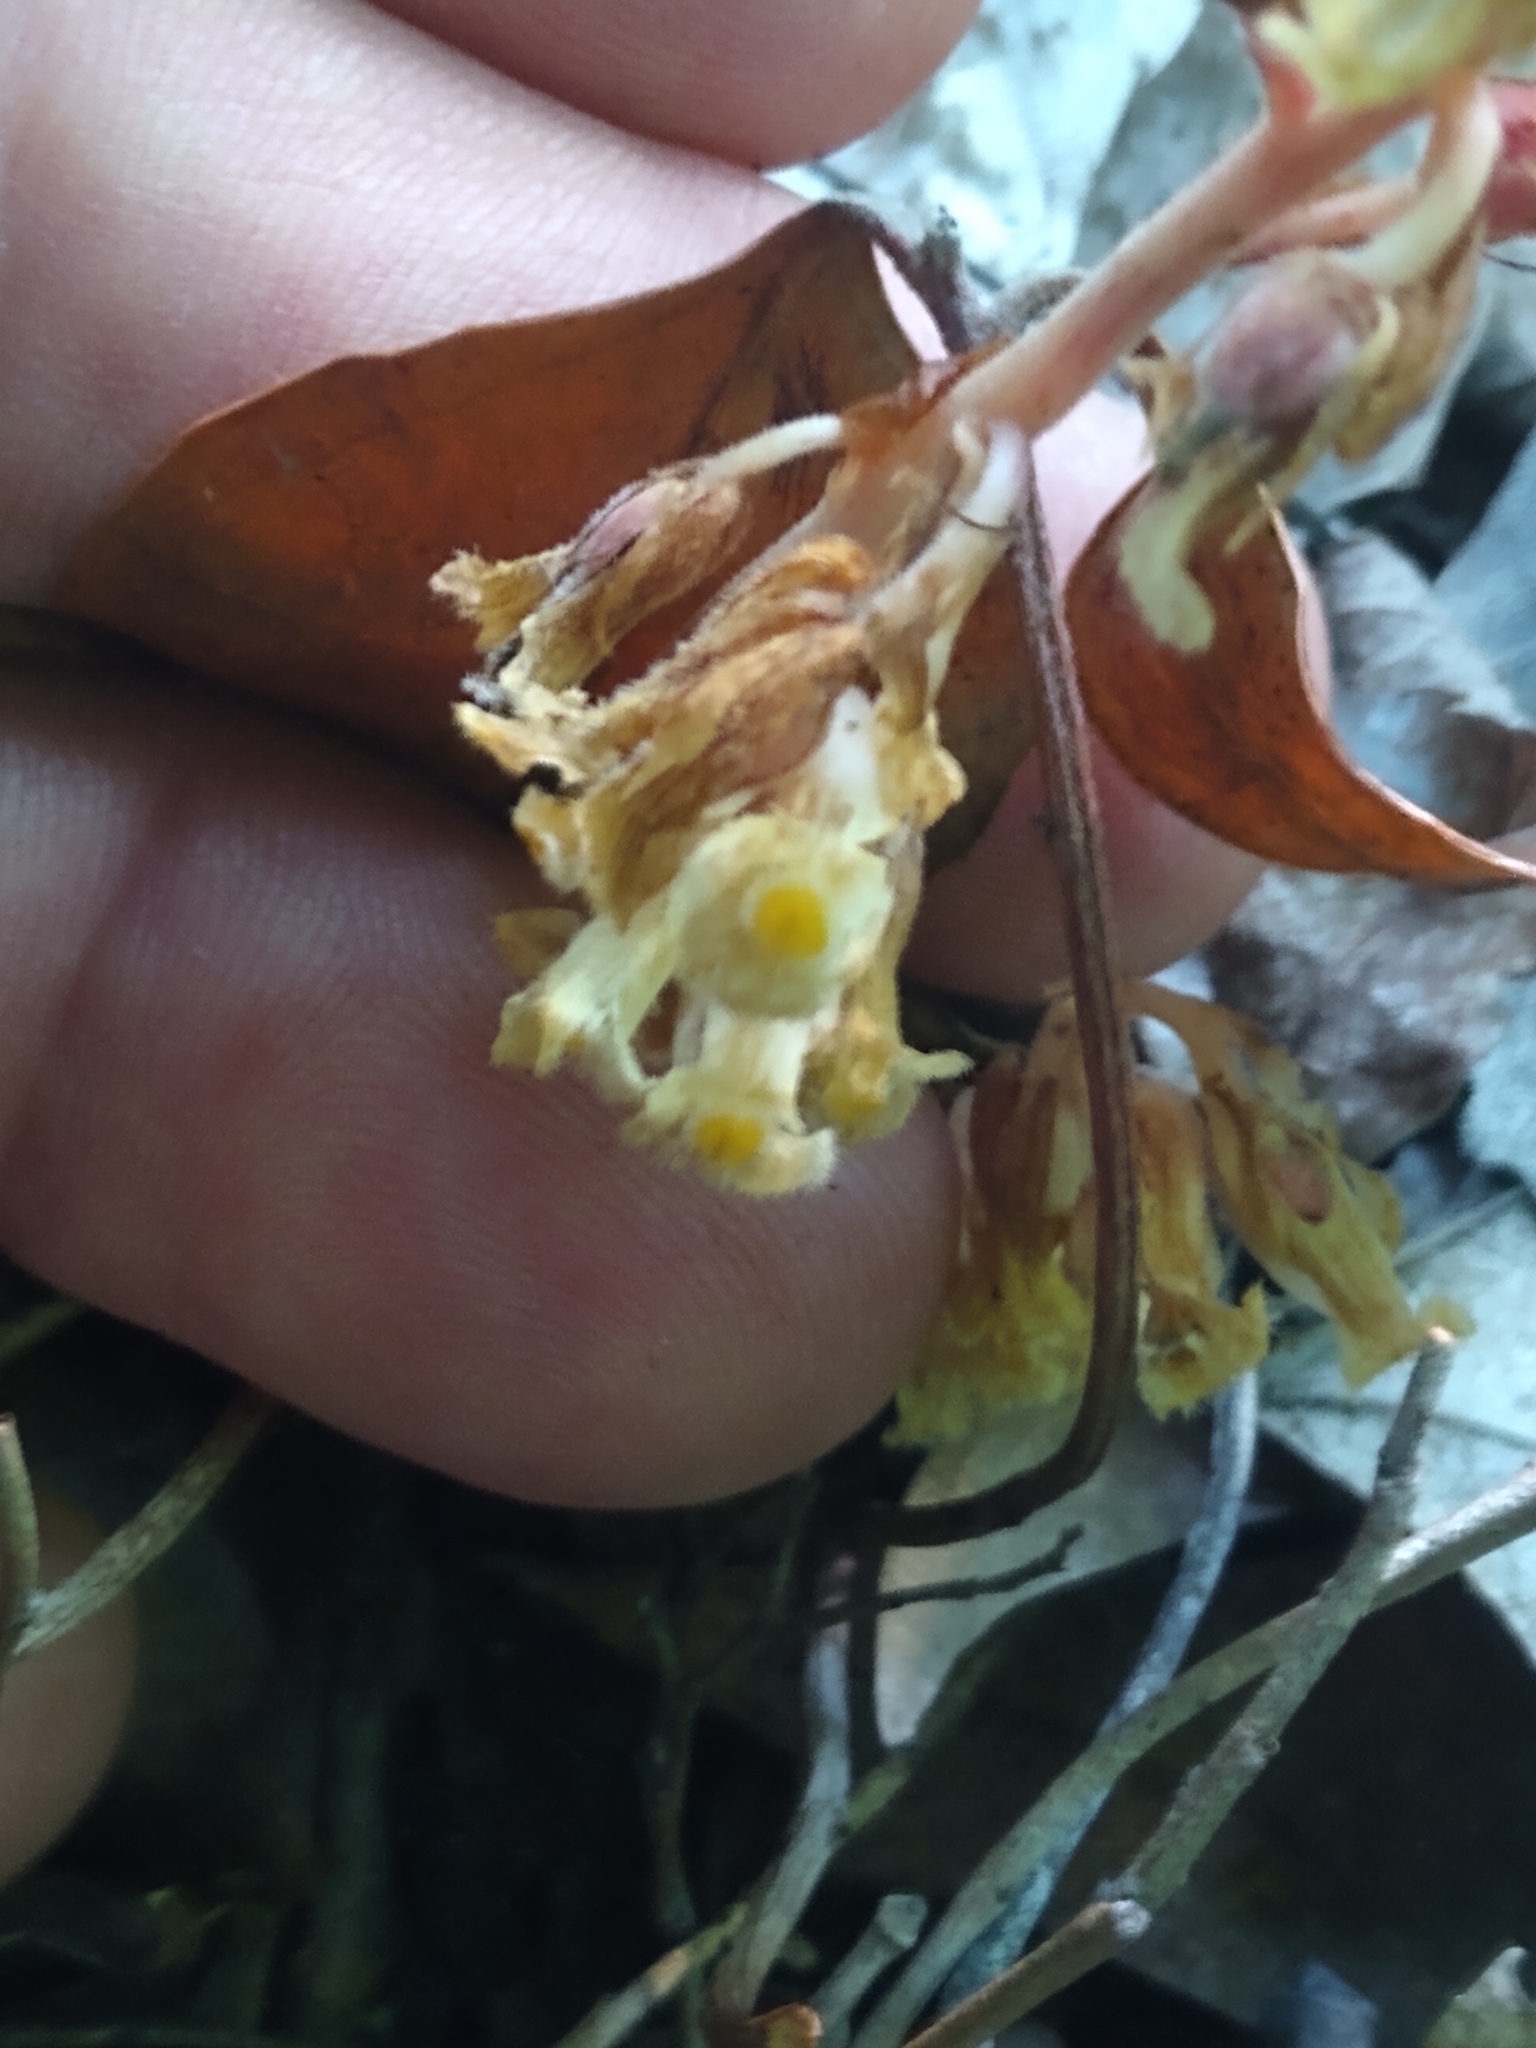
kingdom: Plantae
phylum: Tracheophyta
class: Magnoliopsida
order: Ericales
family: Ericaceae
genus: Hypopitys
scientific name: Hypopitys monotropa
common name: Yellow bird's-nest
